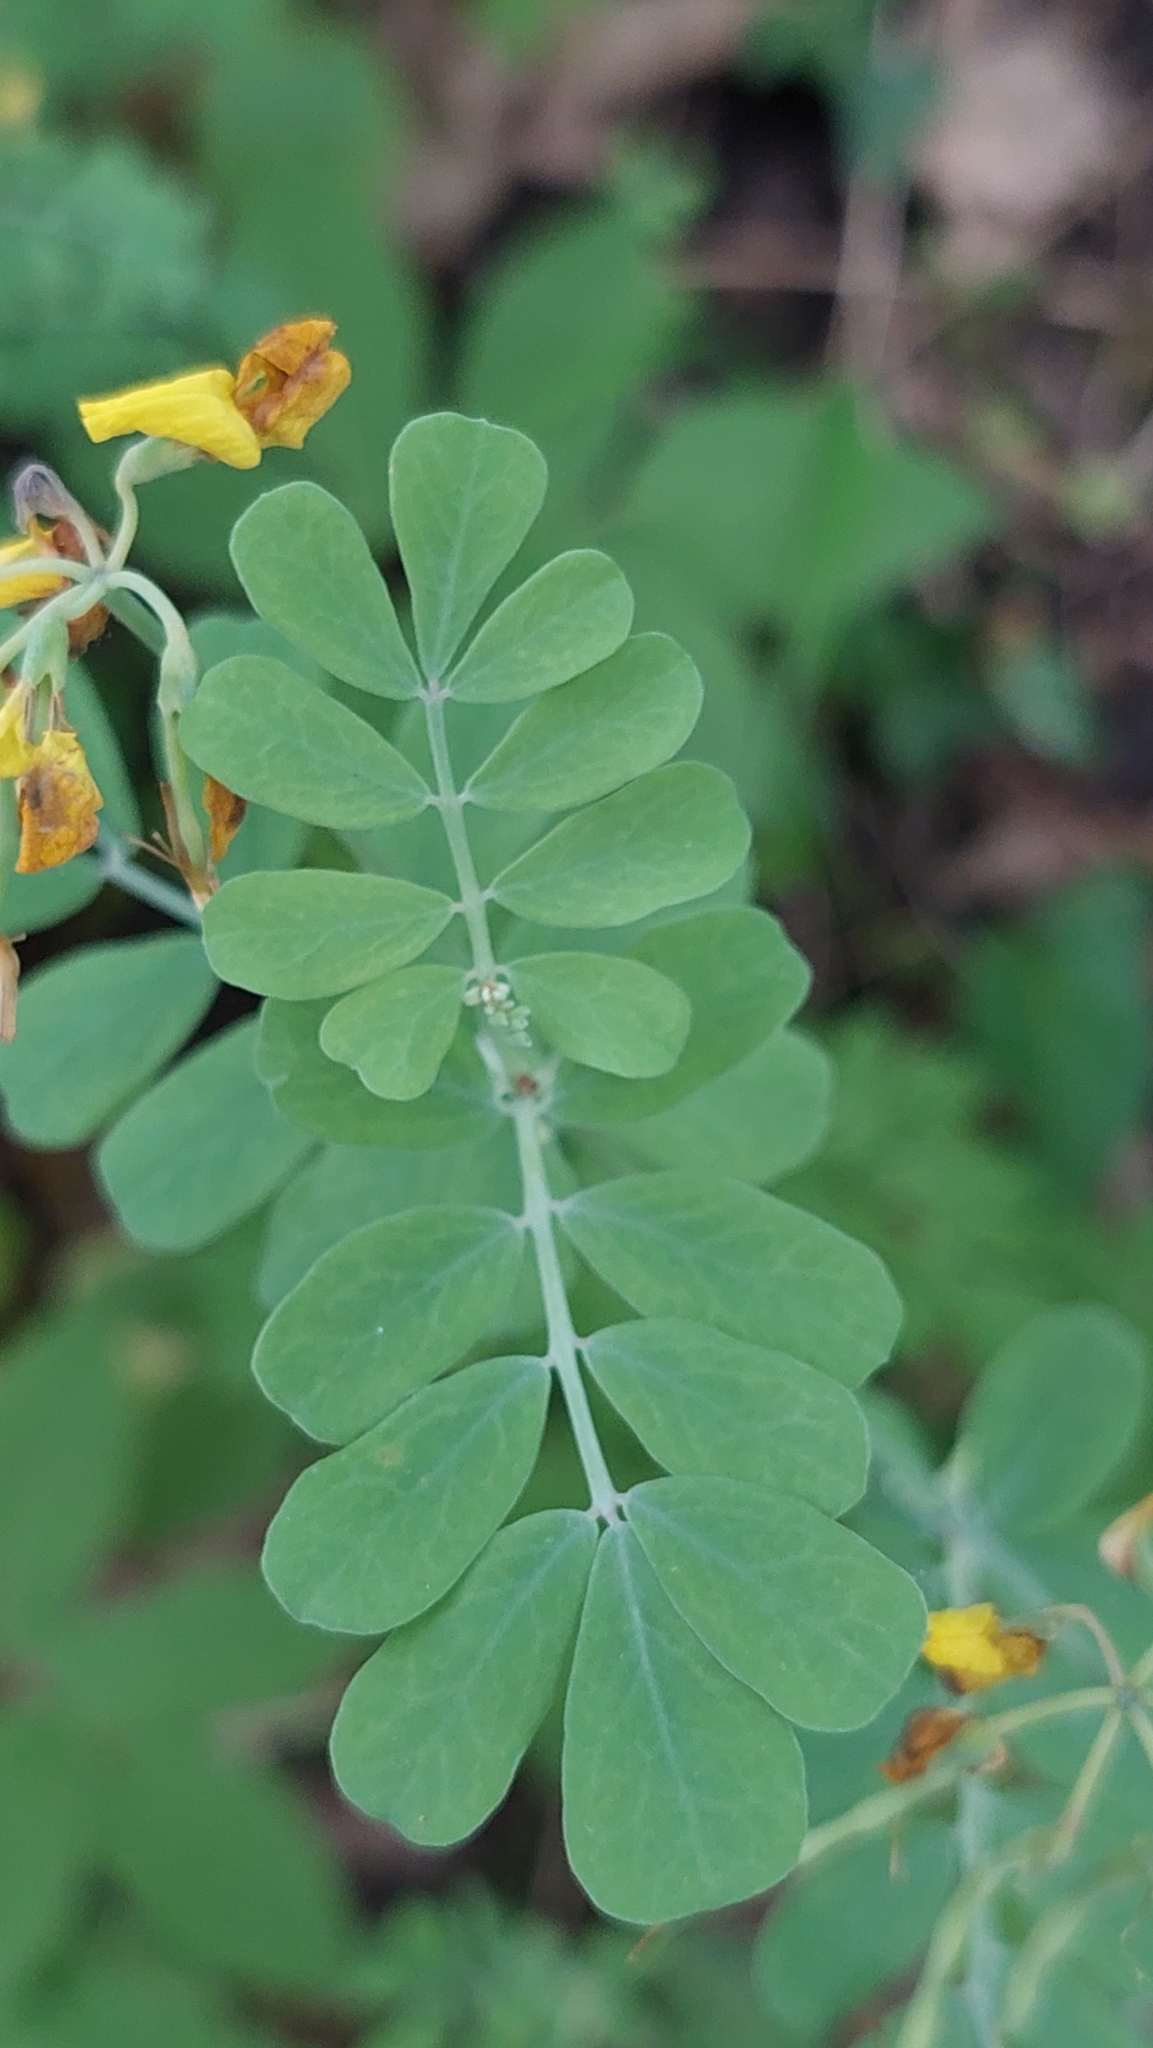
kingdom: Plantae
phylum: Tracheophyta
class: Magnoliopsida
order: Fabales
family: Fabaceae
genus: Coronilla
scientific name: Coronilla coronata
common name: Scorpion-vetch
